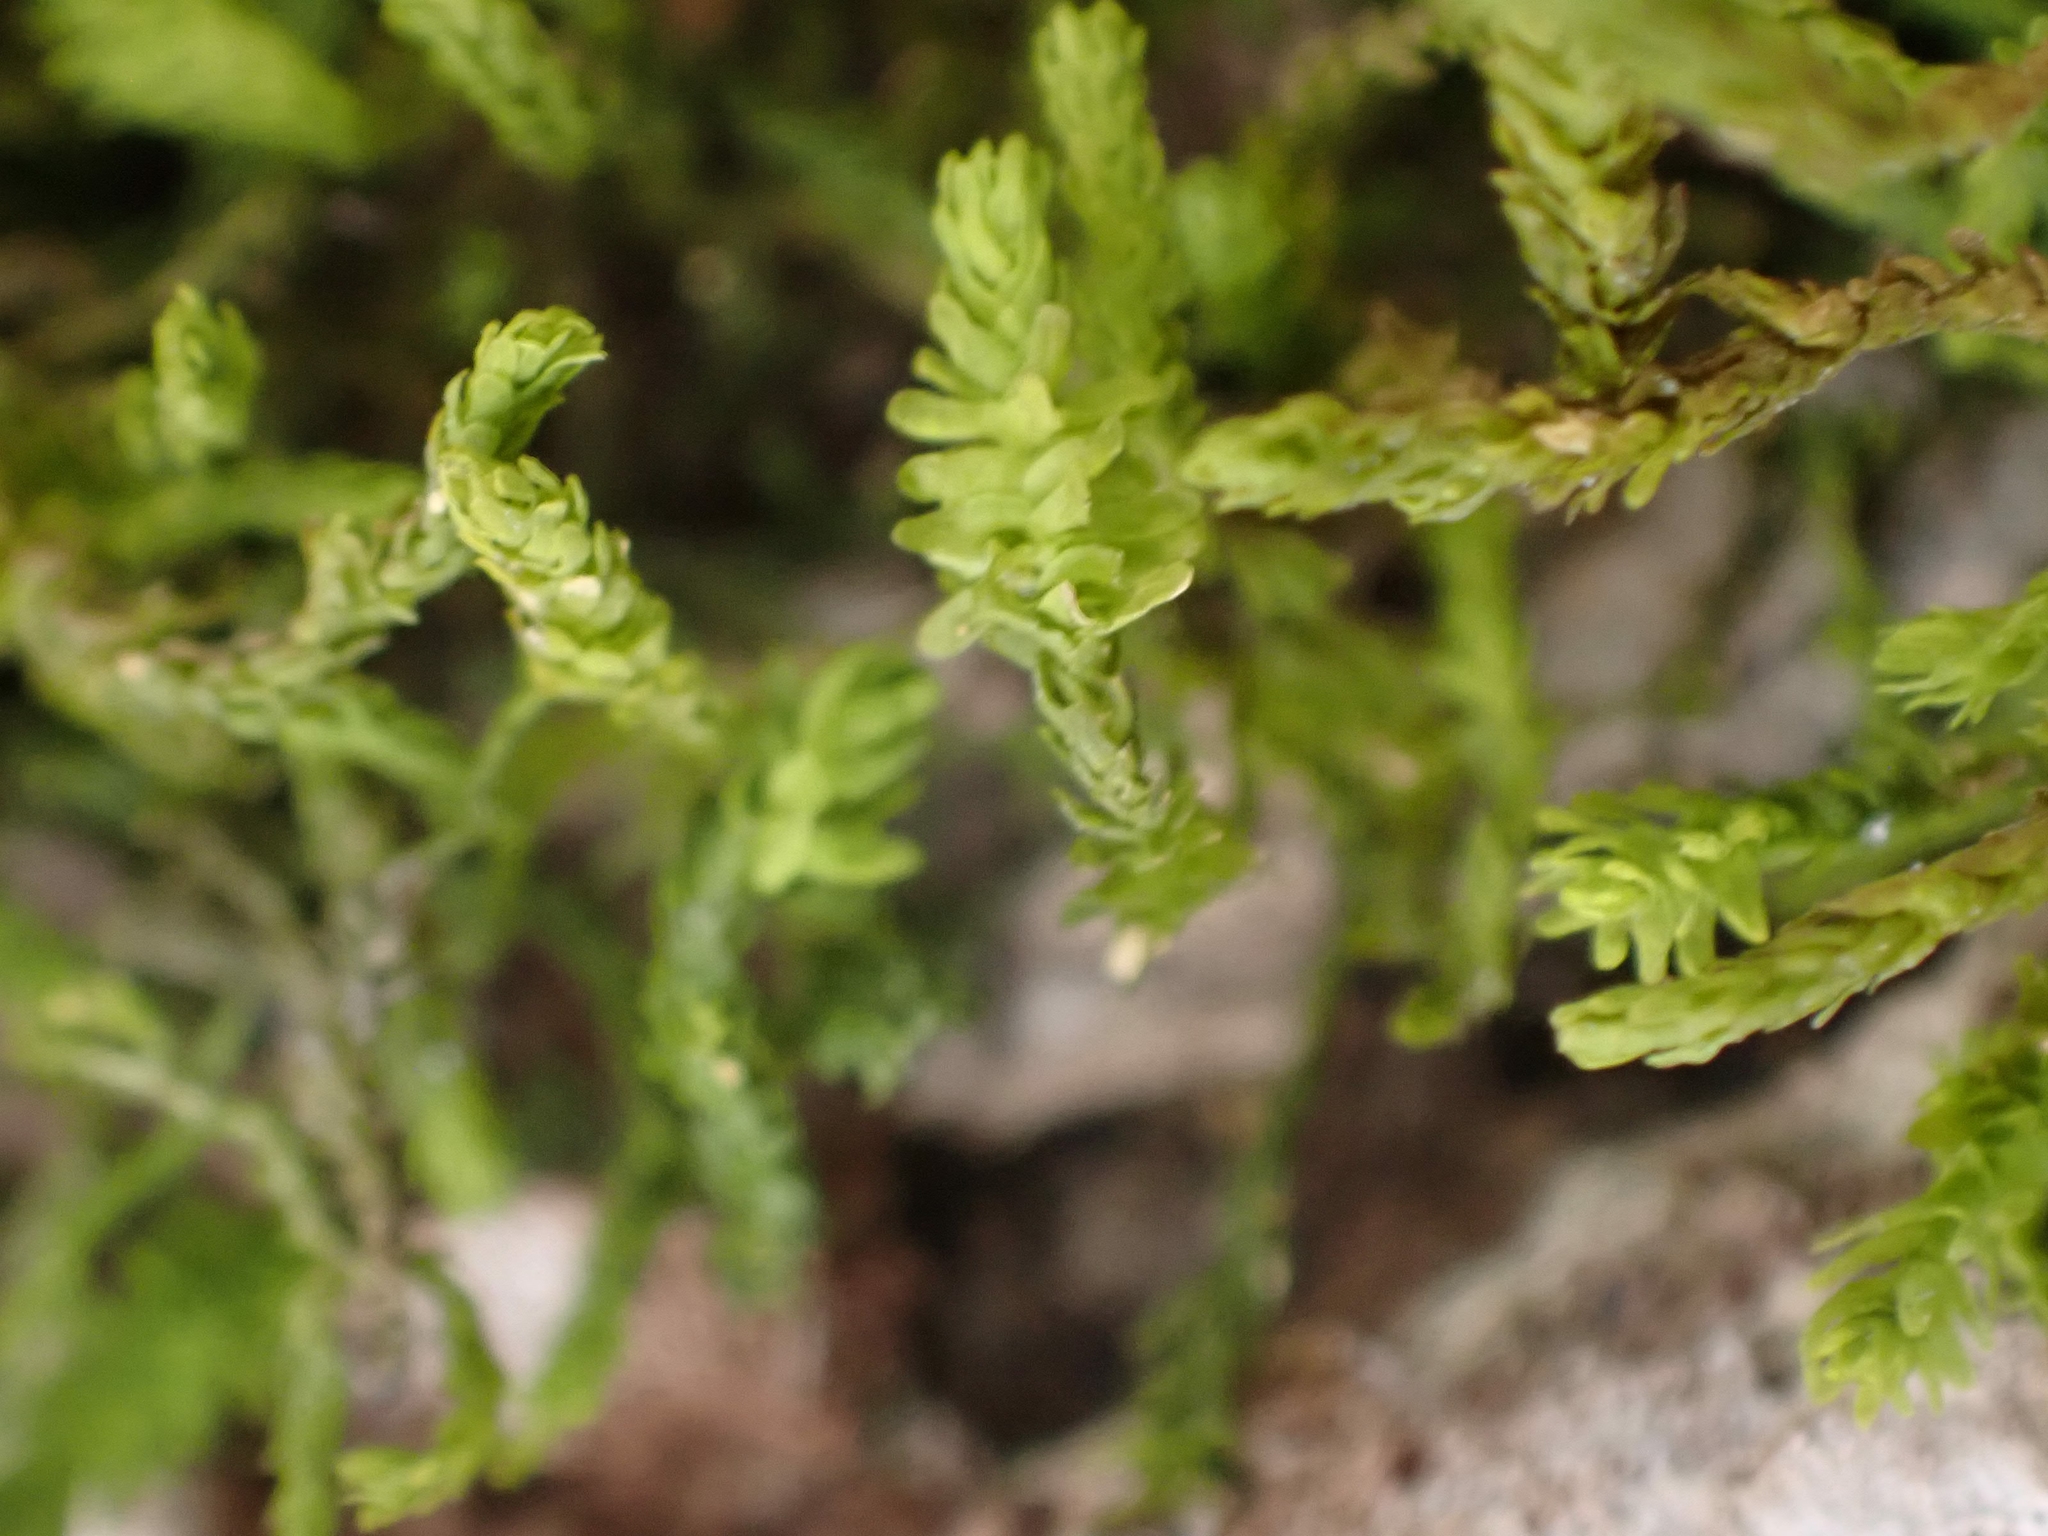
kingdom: Plantae
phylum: Bryophyta
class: Bryopsida
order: Hypnales
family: Anomodontaceae
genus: Anomodon
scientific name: Anomodon minor
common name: Blunt-leaved anomodon
